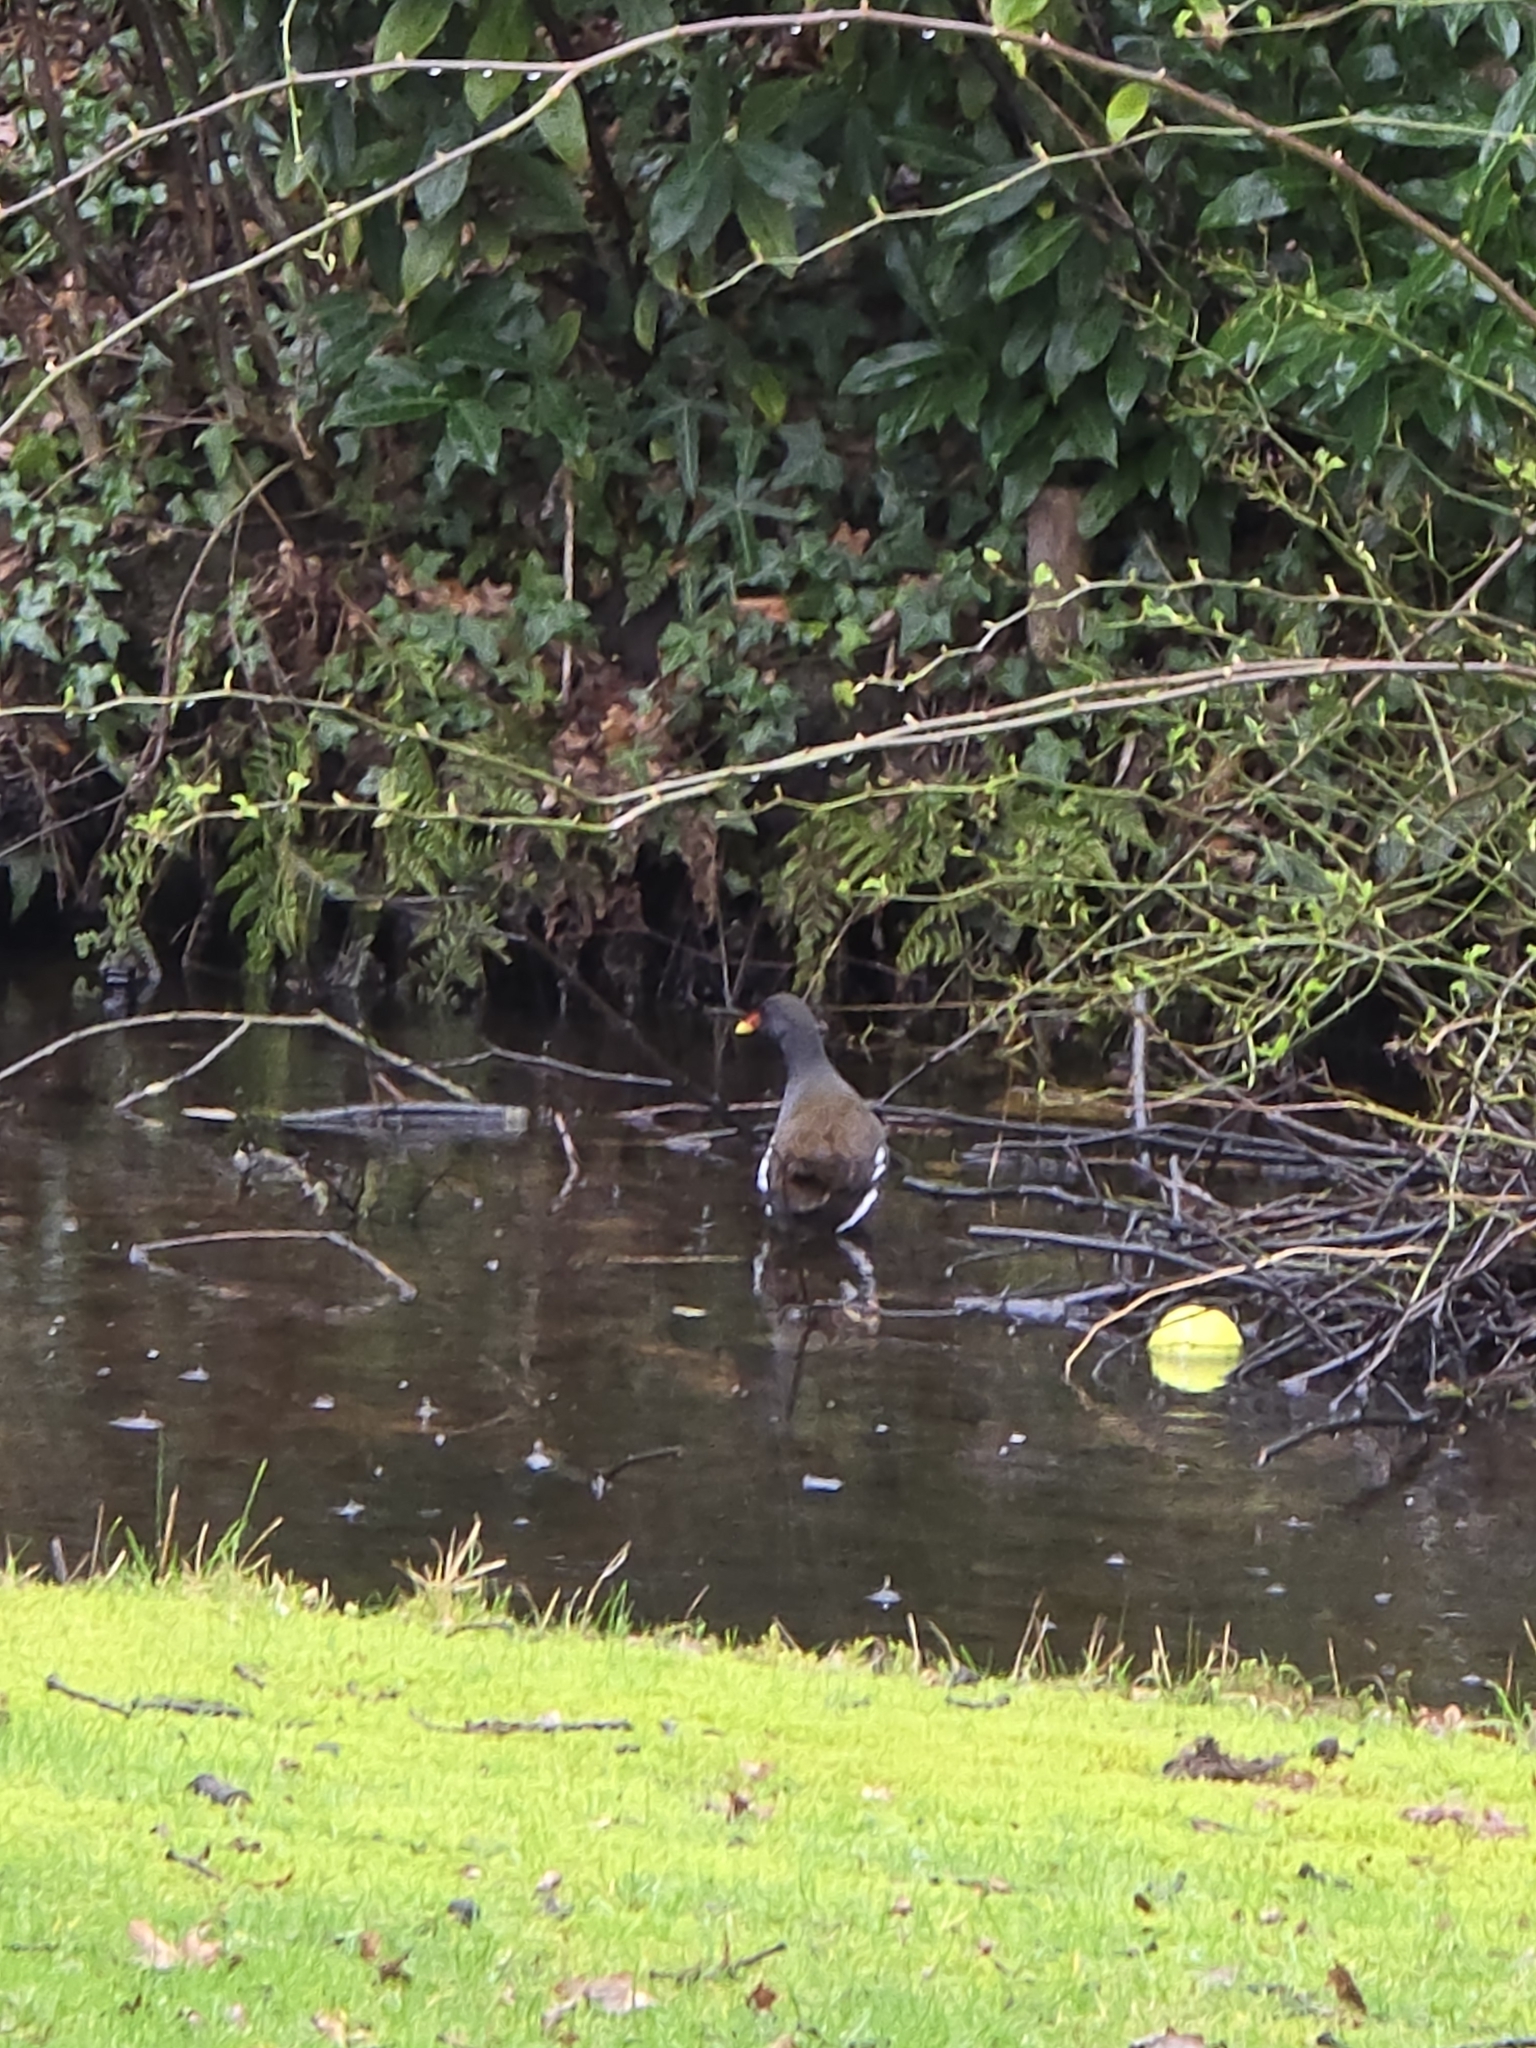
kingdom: Animalia
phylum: Chordata
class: Aves
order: Gruiformes
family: Rallidae
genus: Gallinula
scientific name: Gallinula chloropus
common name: Common moorhen
